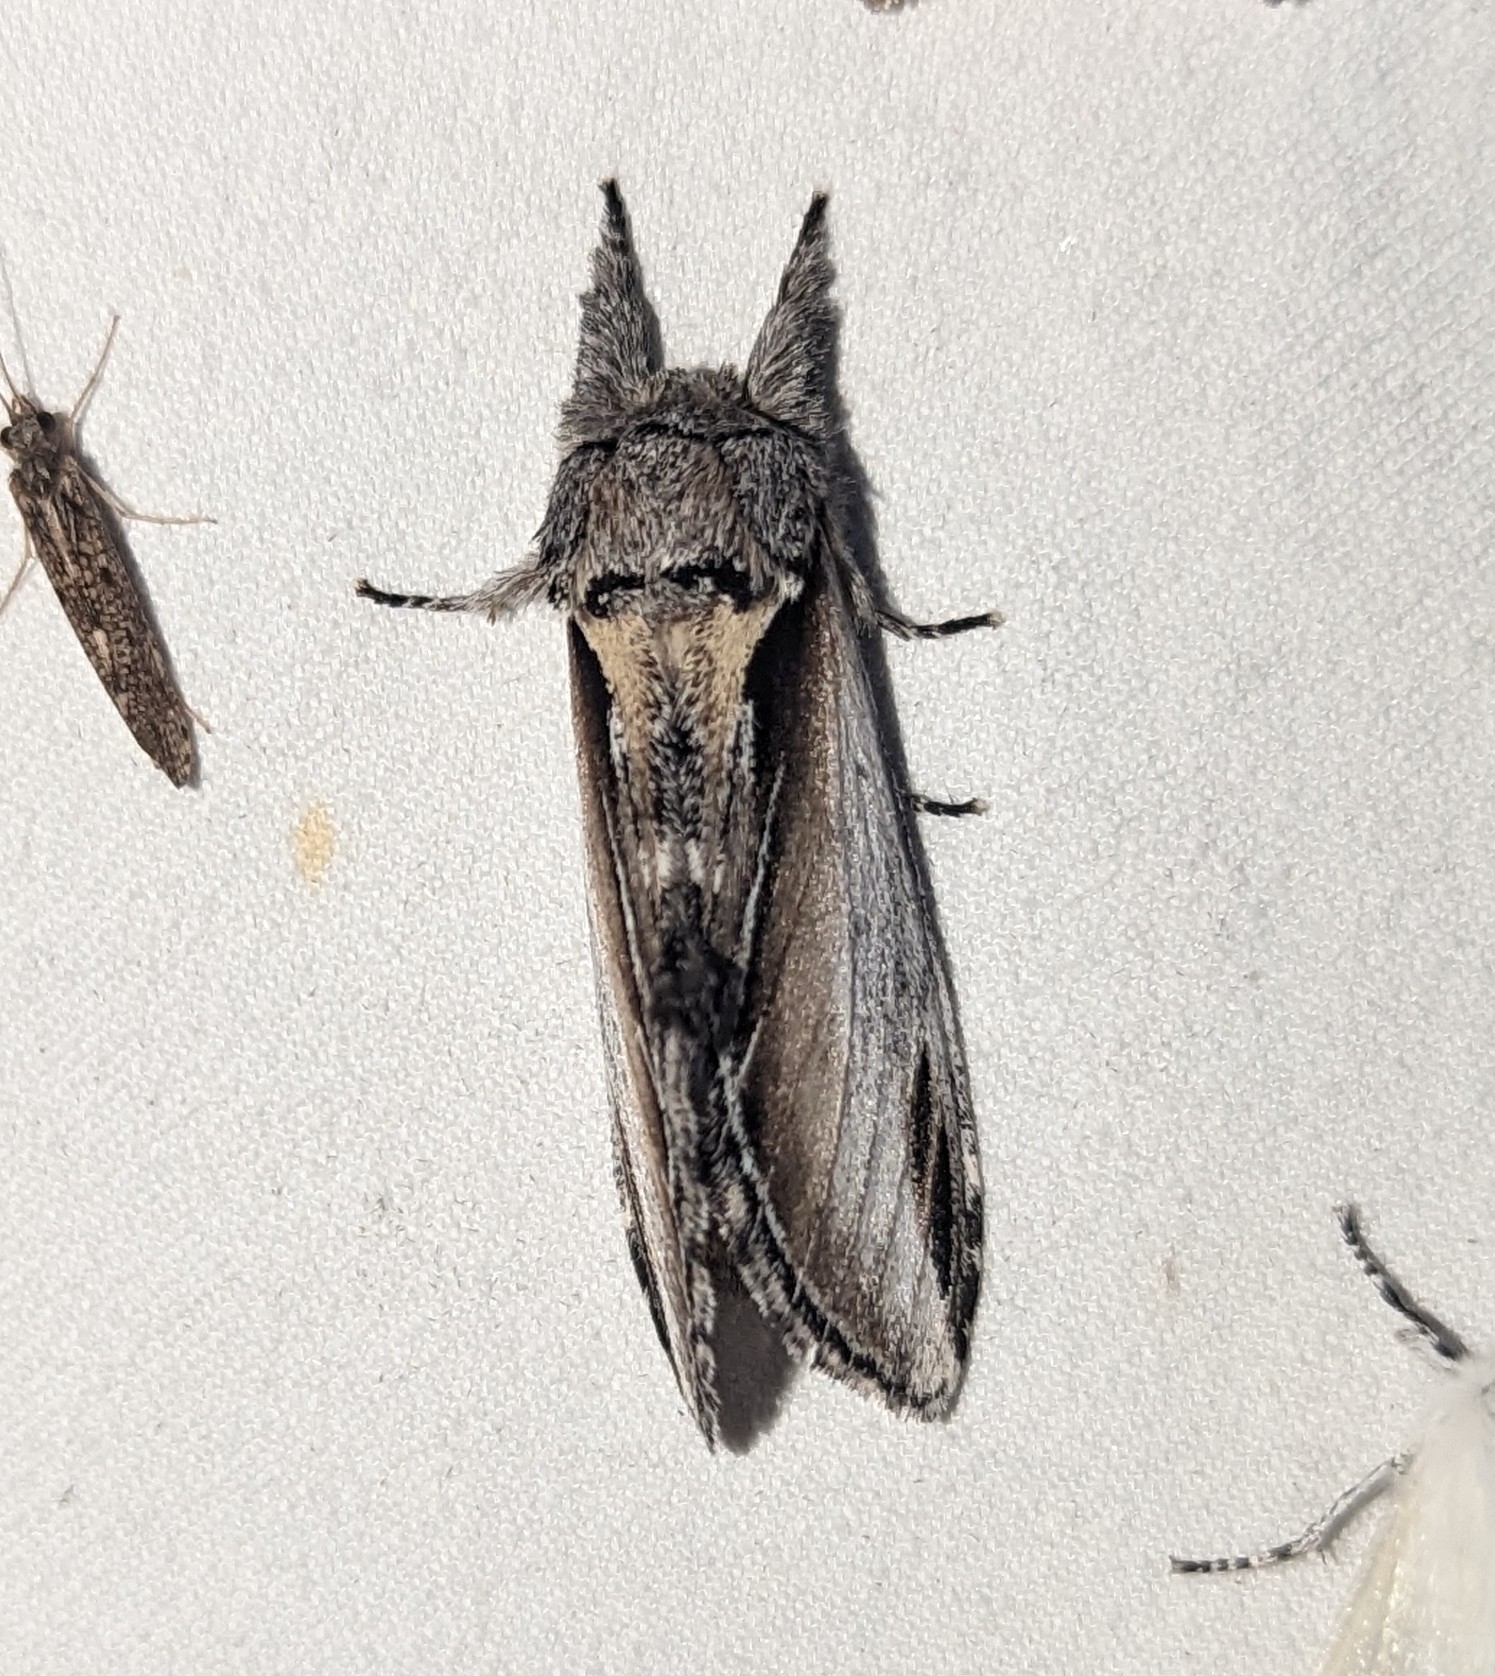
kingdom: Animalia
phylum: Arthropoda
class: Insecta
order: Lepidoptera
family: Notodontidae
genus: Pheosia
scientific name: Pheosia rimosa
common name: Black-rimmed prominent
